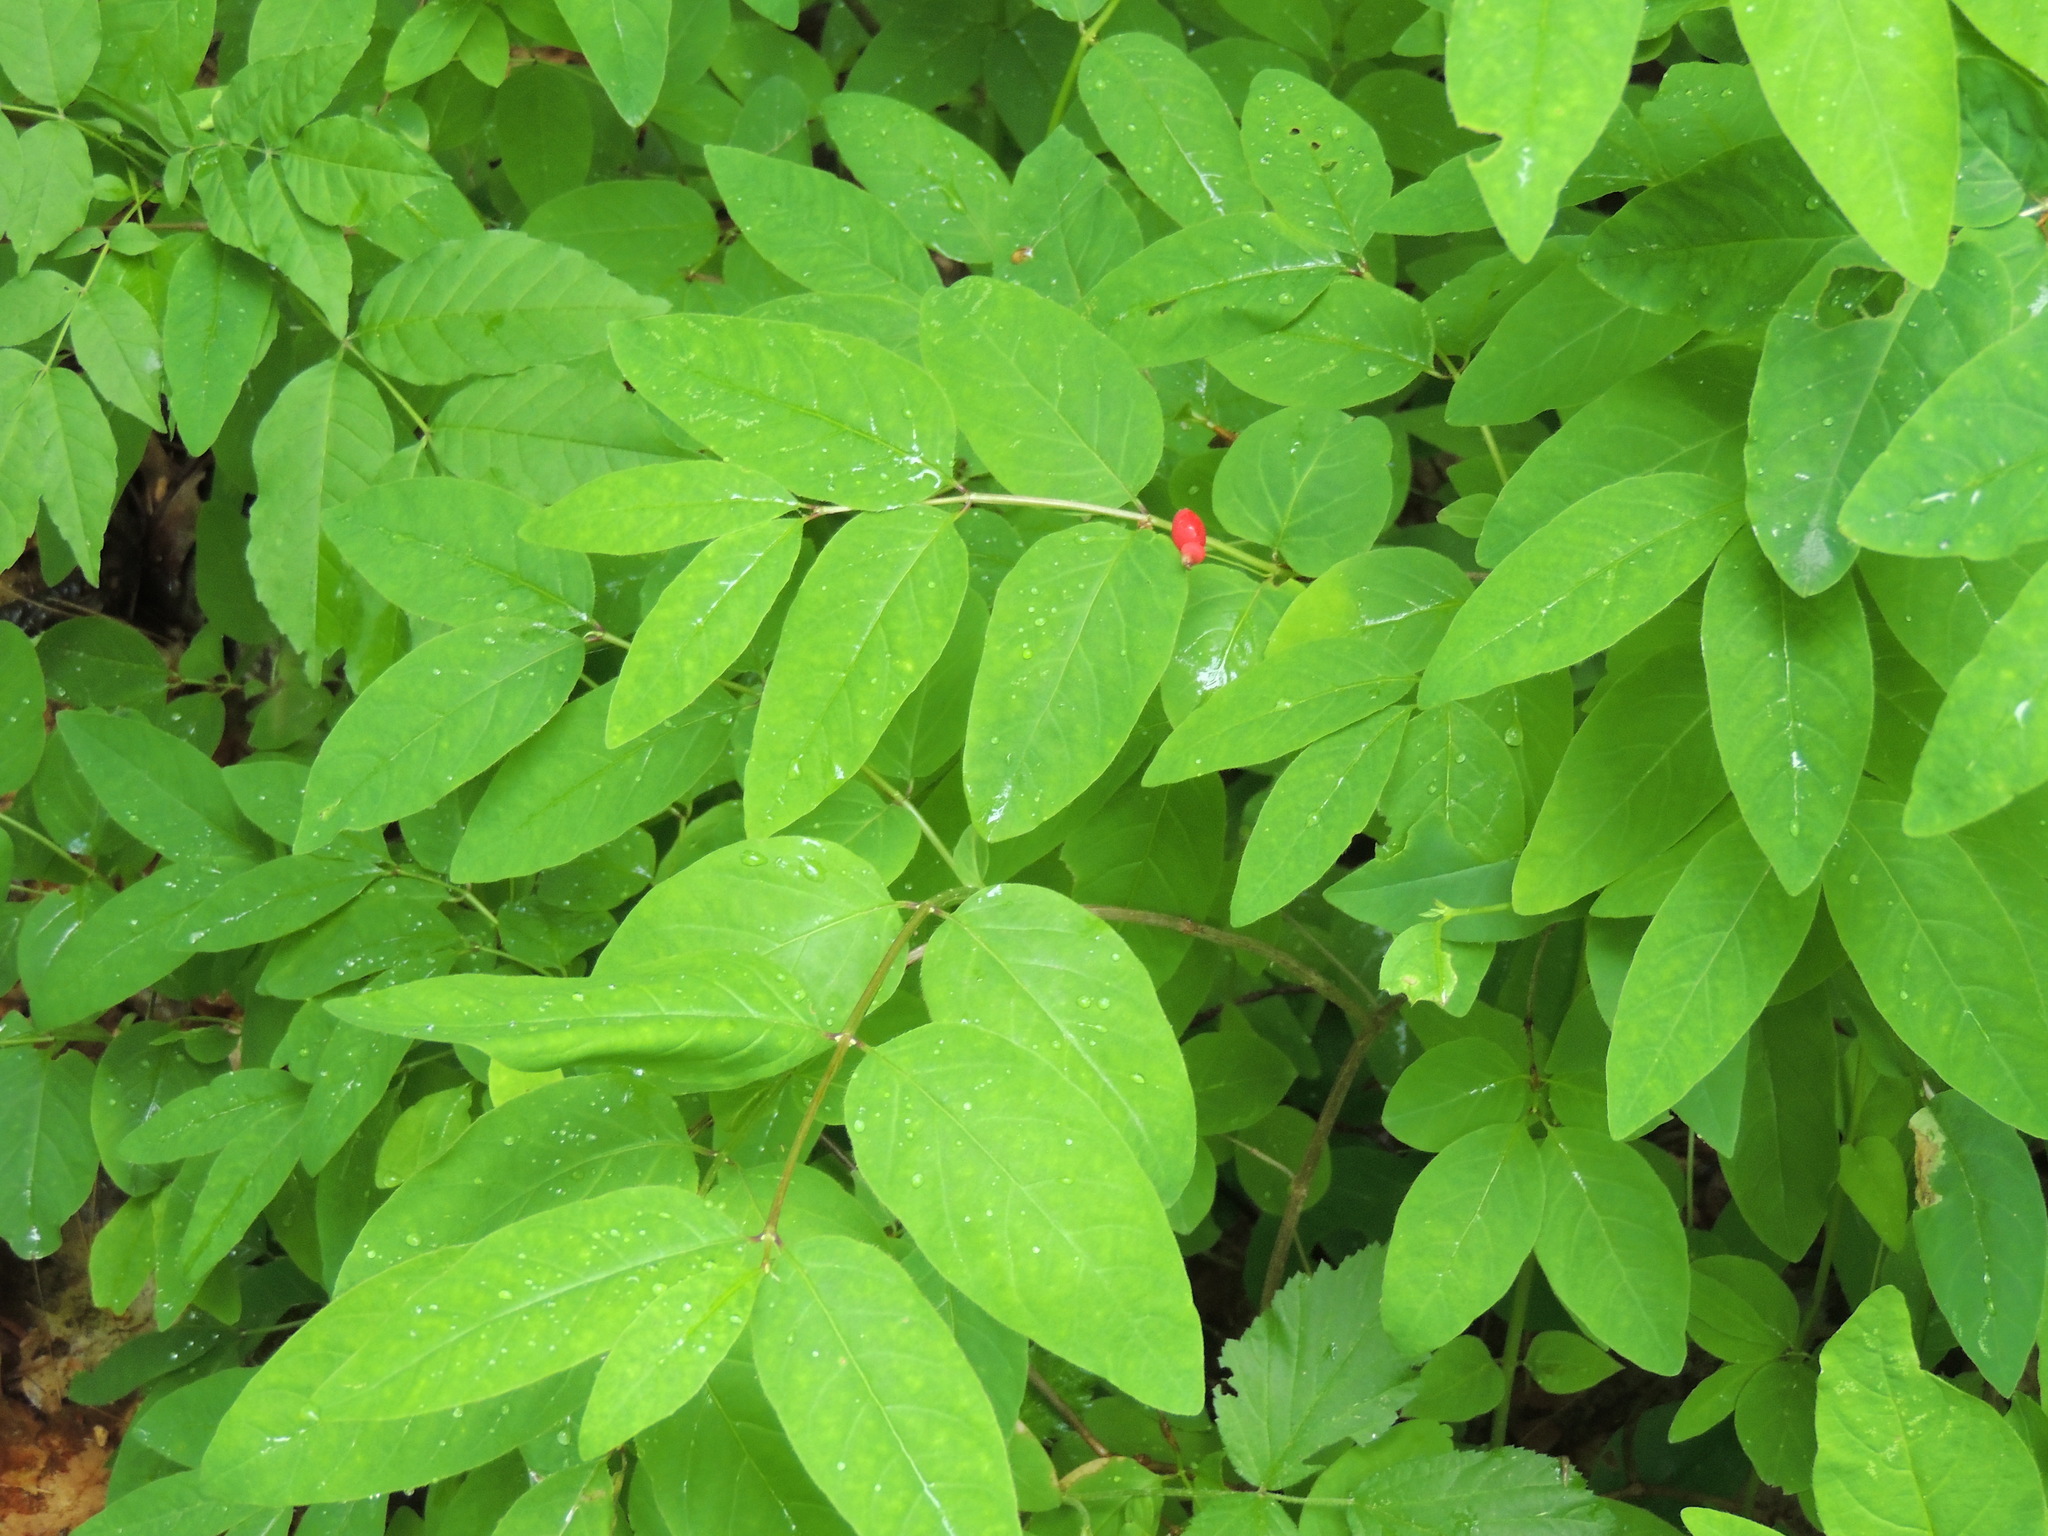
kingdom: Plantae
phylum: Tracheophyta
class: Magnoliopsida
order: Dipsacales
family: Caprifoliaceae
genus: Lonicera
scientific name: Lonicera canadensis
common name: American fly-honeysuckle
